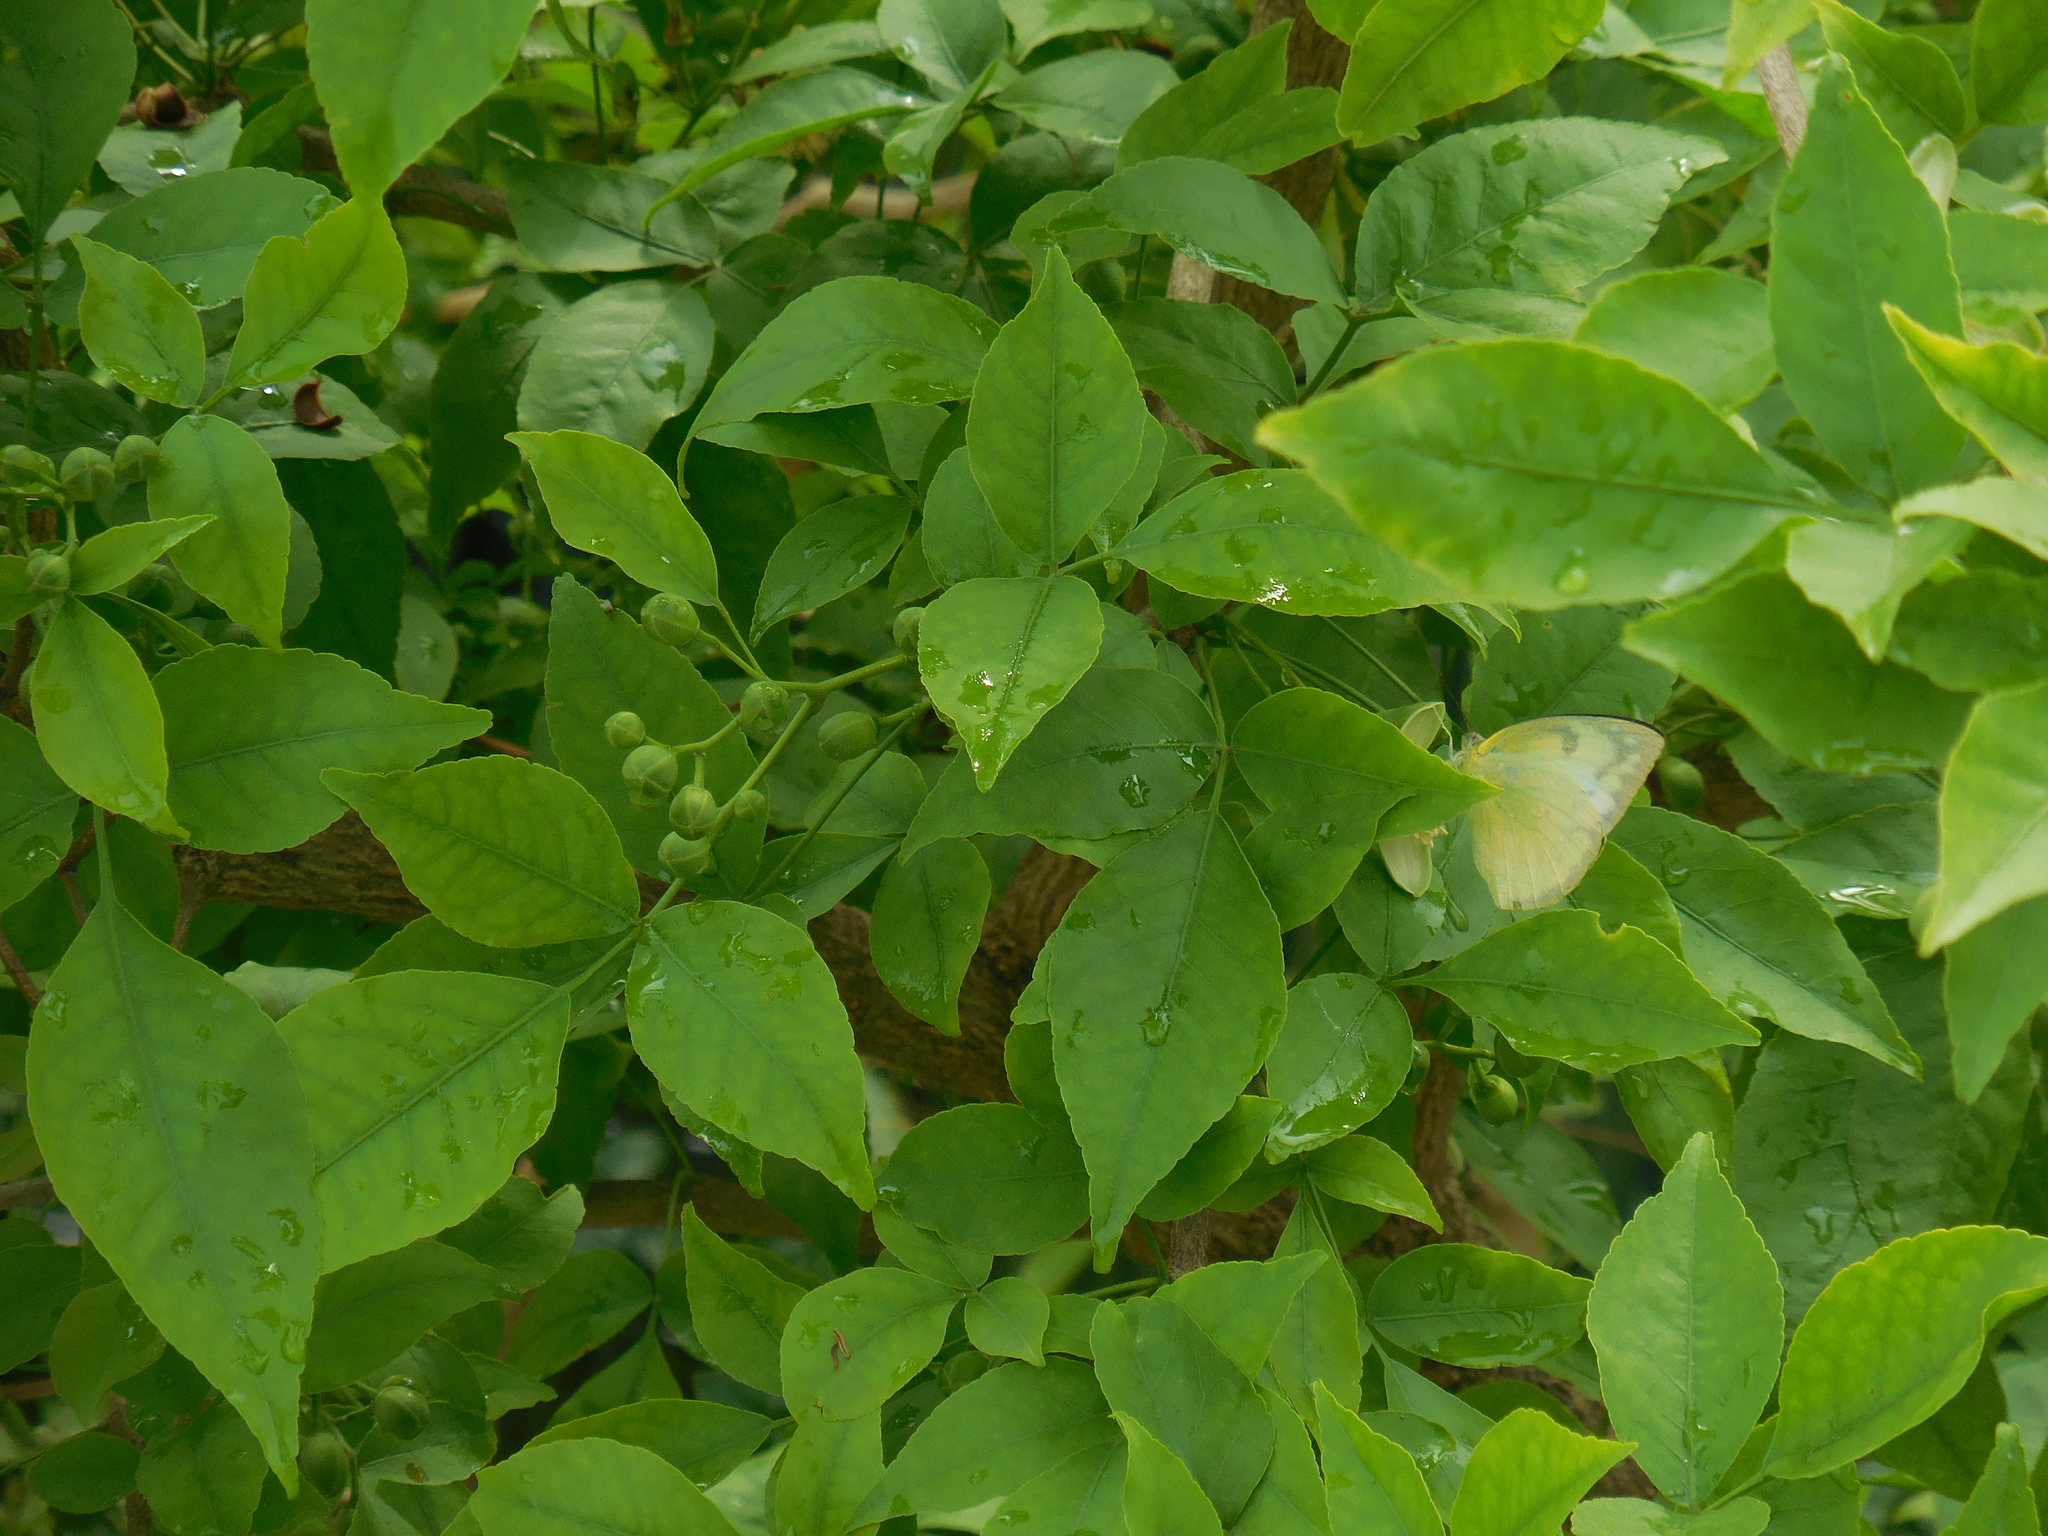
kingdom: Animalia
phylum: Arthropoda
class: Insecta
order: Lepidoptera
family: Pieridae
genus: Catopsilia
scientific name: Catopsilia pomona
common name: Common emigrant
